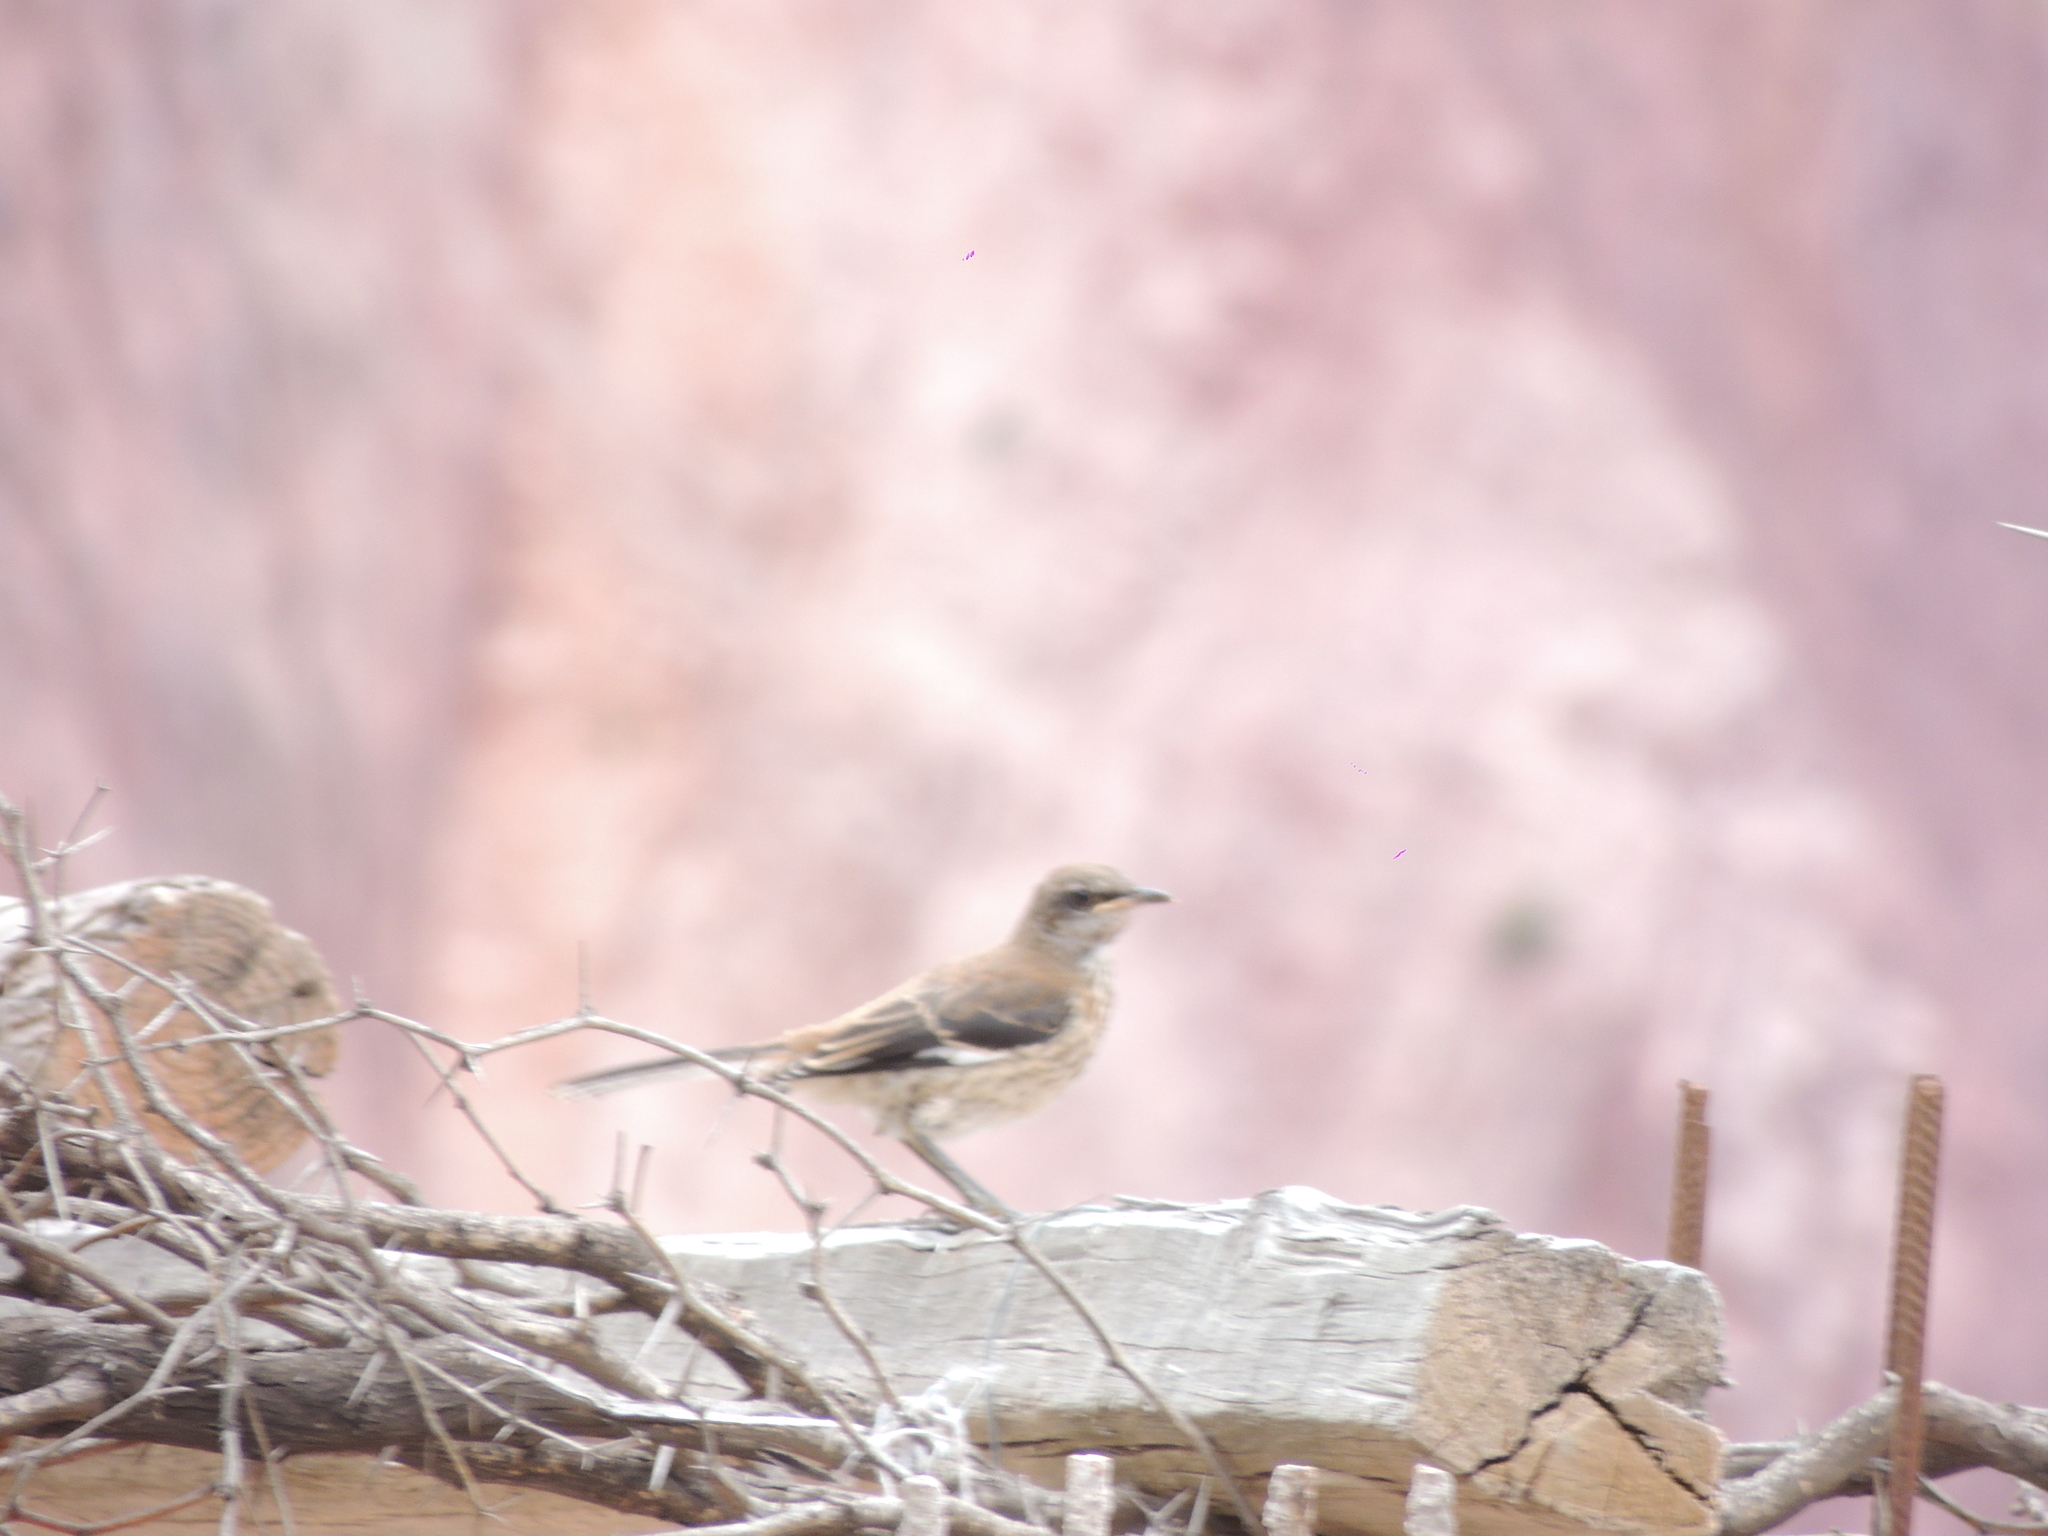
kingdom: Animalia
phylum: Chordata
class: Aves
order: Passeriformes
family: Mimidae
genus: Mimus
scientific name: Mimus dorsalis
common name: Brown-backed mockingbird
